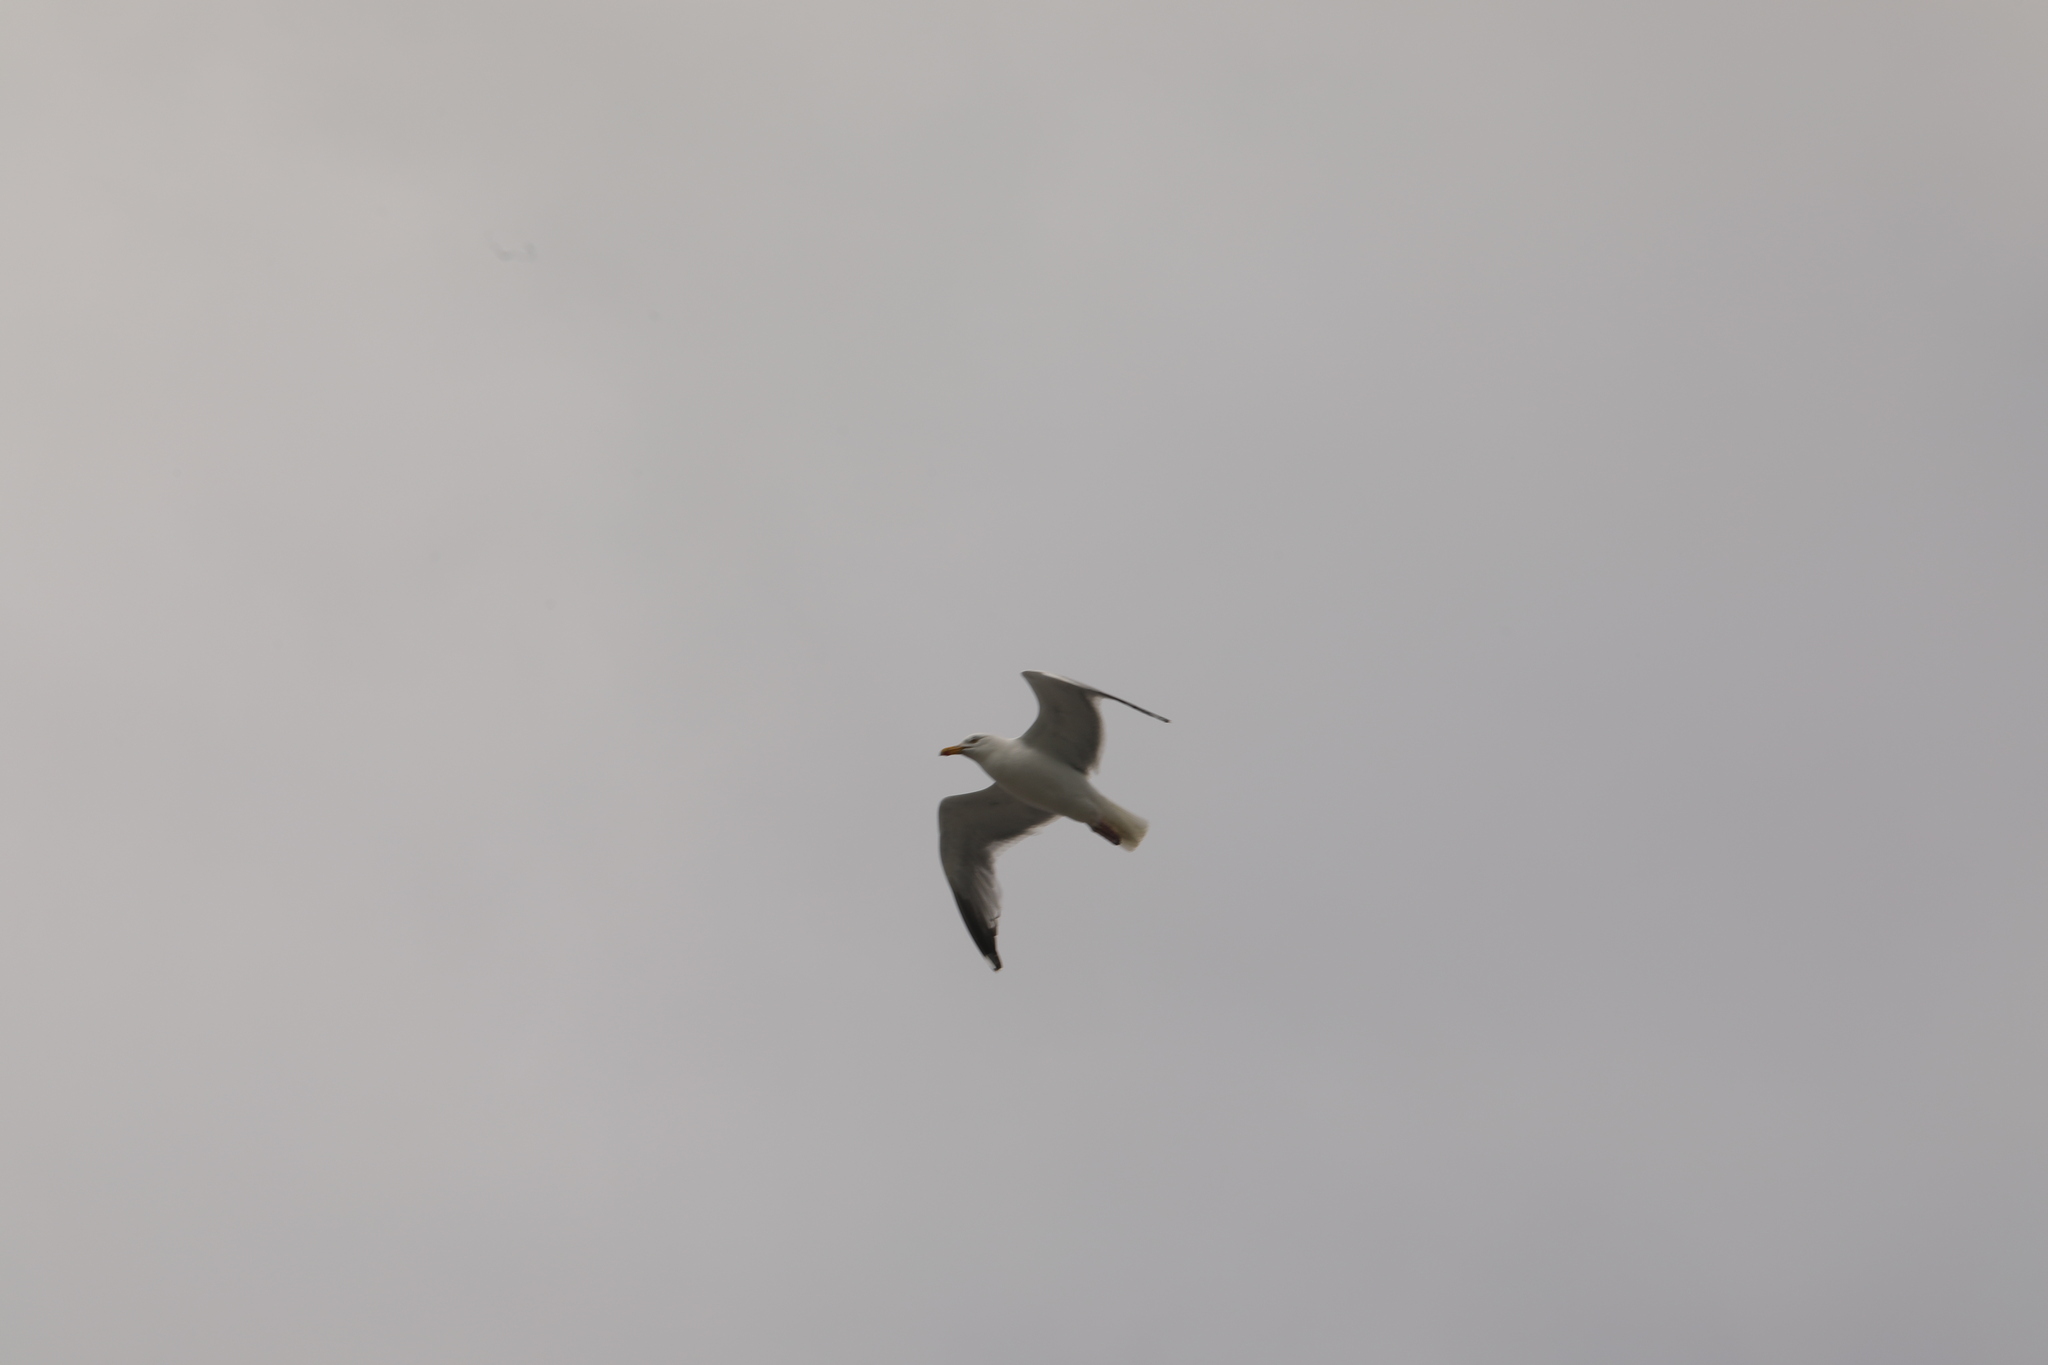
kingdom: Animalia
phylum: Chordata
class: Aves
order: Charadriiformes
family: Laridae
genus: Larus
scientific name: Larus argentatus
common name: Herring gull
